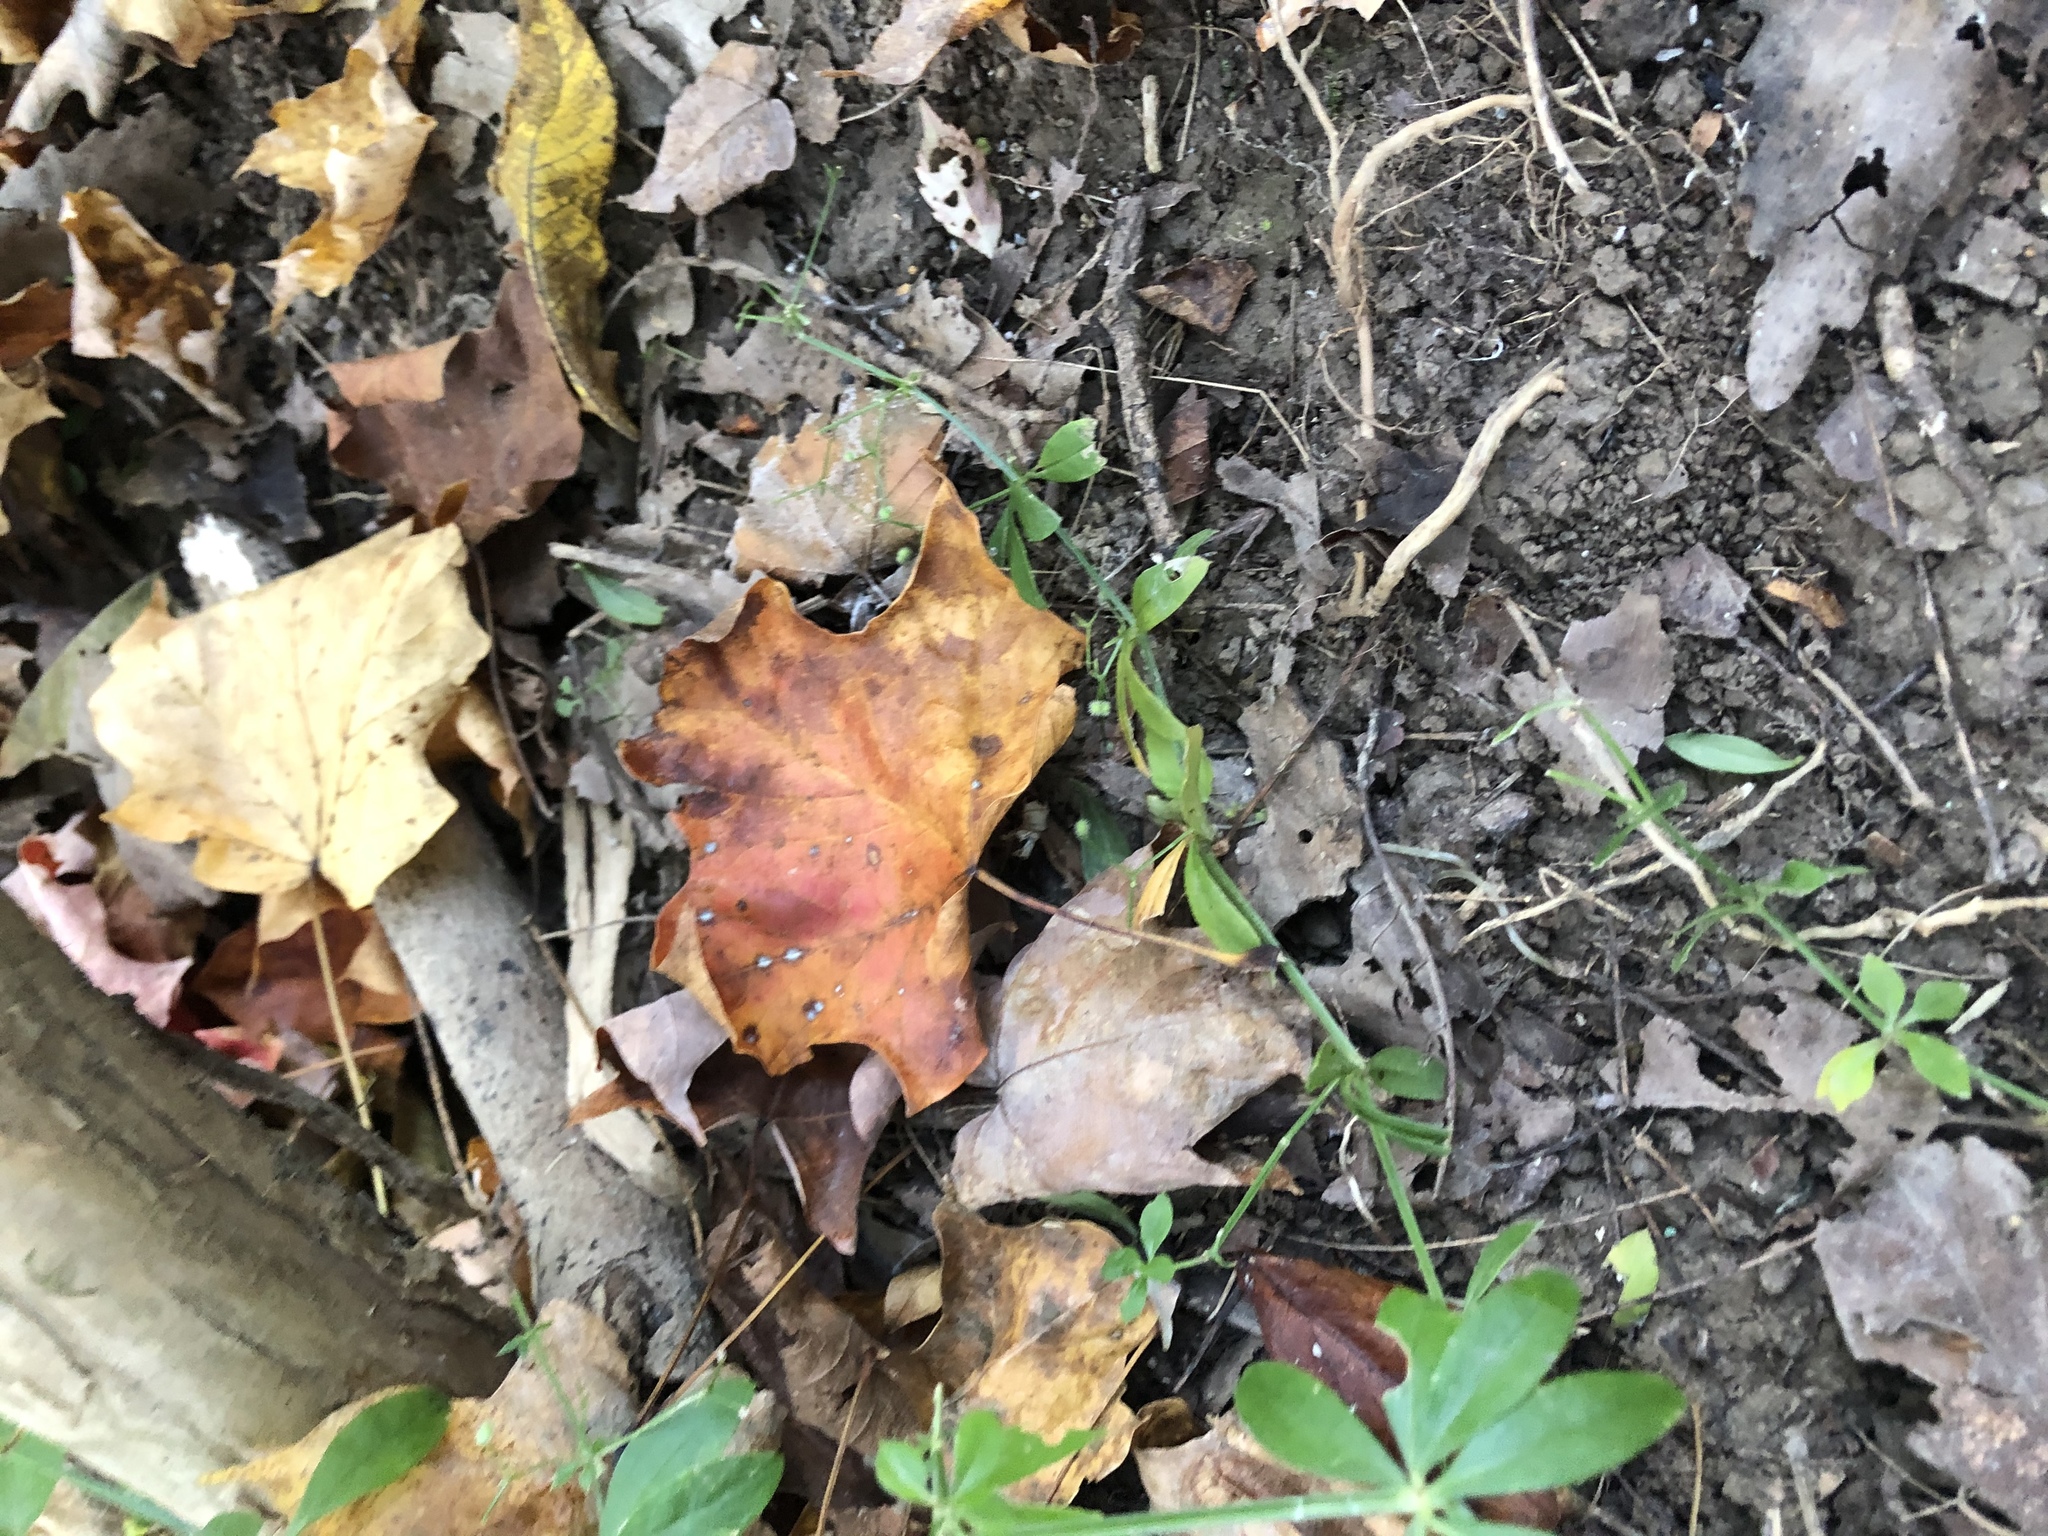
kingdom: Plantae
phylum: Tracheophyta
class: Magnoliopsida
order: Gentianales
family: Rubiaceae
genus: Galium
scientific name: Galium triflorum
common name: Fragrant bedstraw
